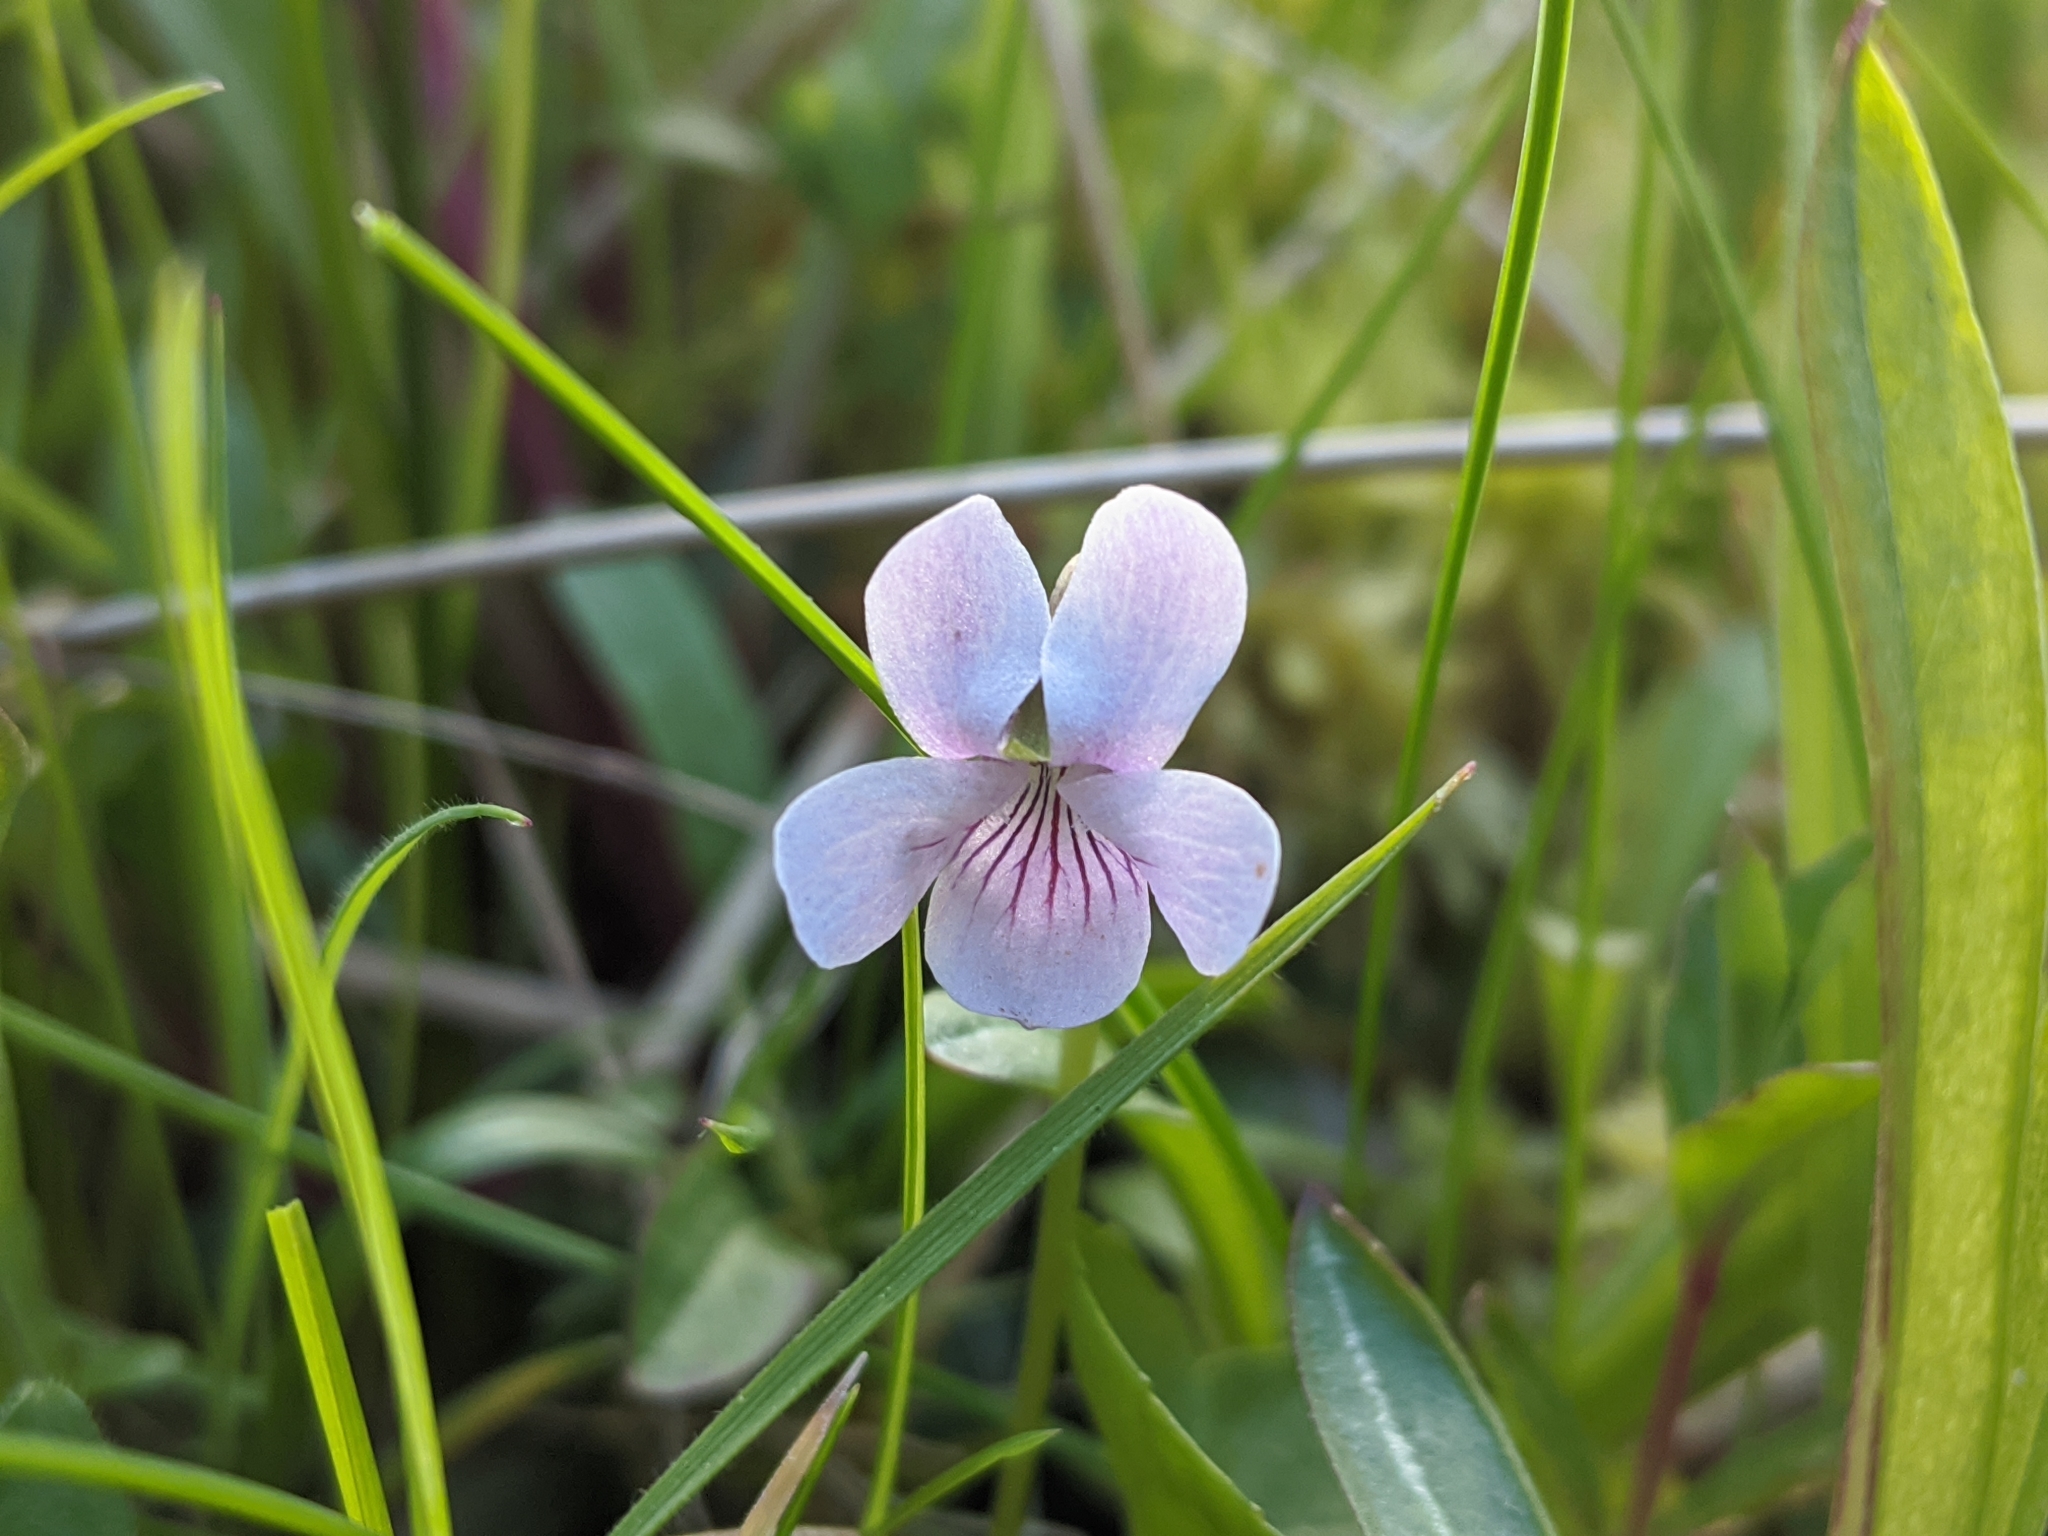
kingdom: Plantae
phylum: Tracheophyta
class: Magnoliopsida
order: Malpighiales
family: Violaceae
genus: Viola
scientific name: Viola palustris
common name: Marsh violet
